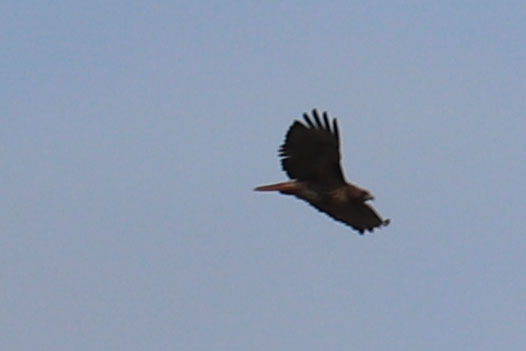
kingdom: Animalia
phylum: Chordata
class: Aves
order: Accipitriformes
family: Accipitridae
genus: Buteo
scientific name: Buteo jamaicensis
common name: Red-tailed hawk
